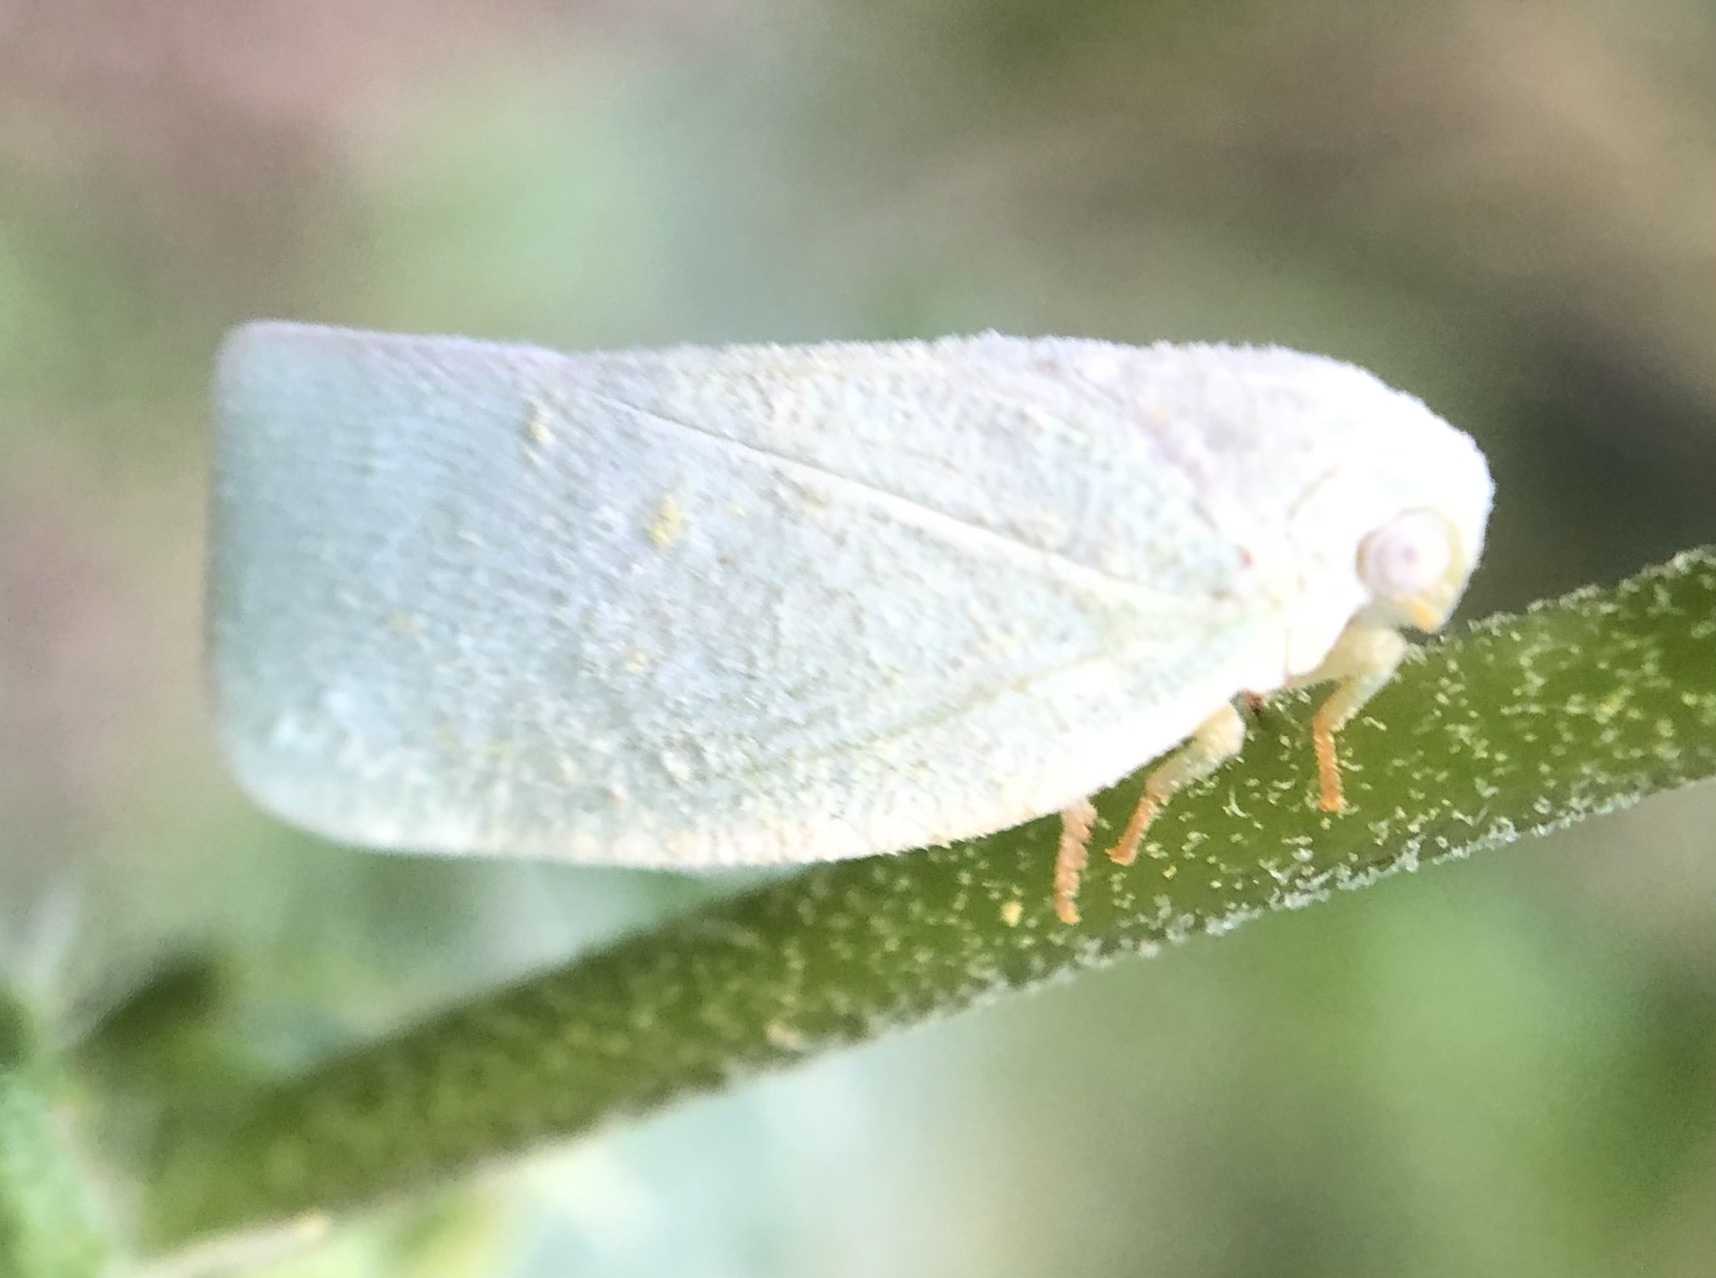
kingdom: Animalia
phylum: Arthropoda
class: Insecta
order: Hemiptera
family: Flatidae
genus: Flatormenis
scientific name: Flatormenis proxima
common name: Northern flatid planthopper
